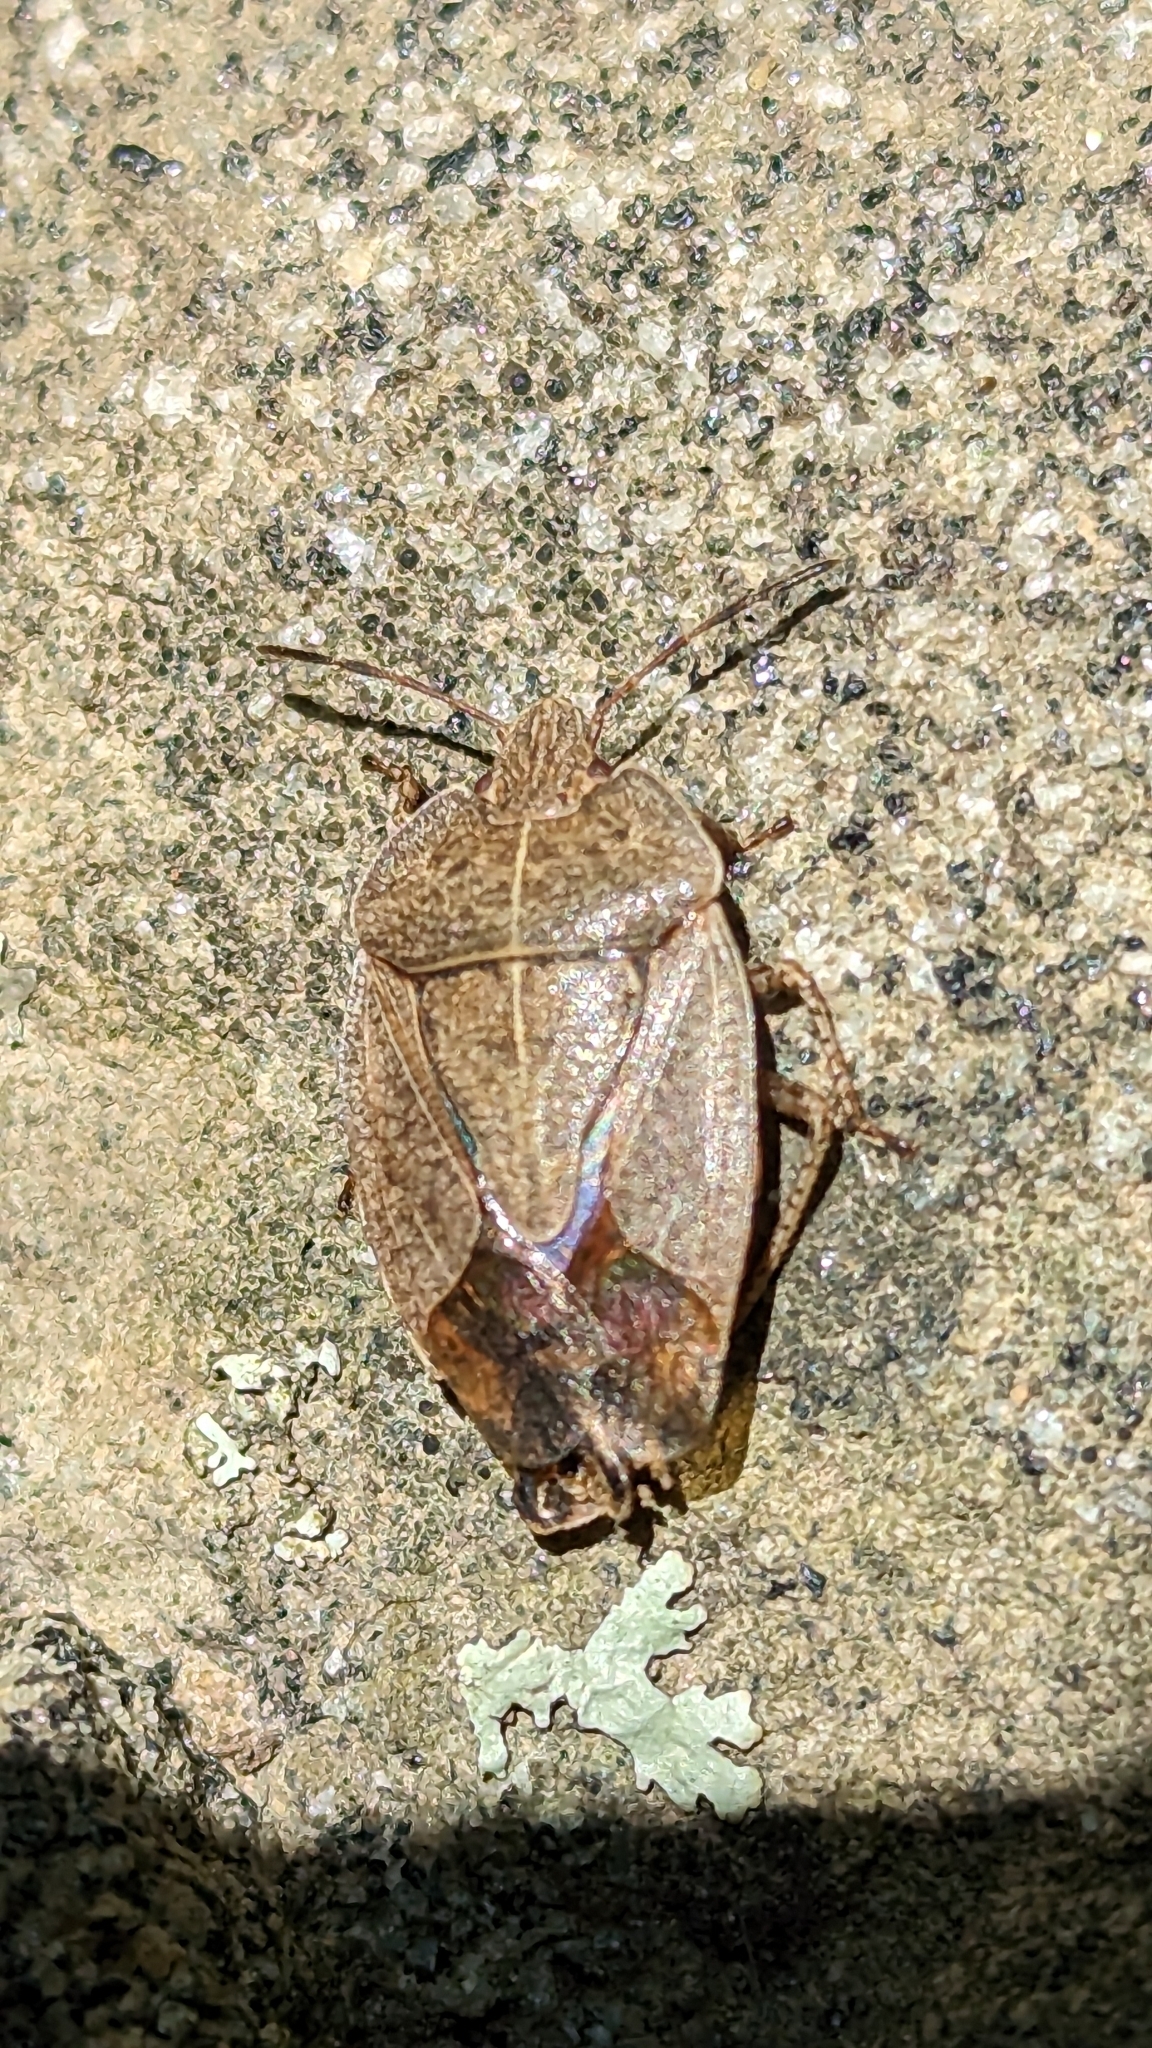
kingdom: Animalia
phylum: Arthropoda
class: Insecta
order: Hemiptera
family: Pentatomidae
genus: Menecles
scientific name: Menecles insertus
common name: Elf shoe stink bug
